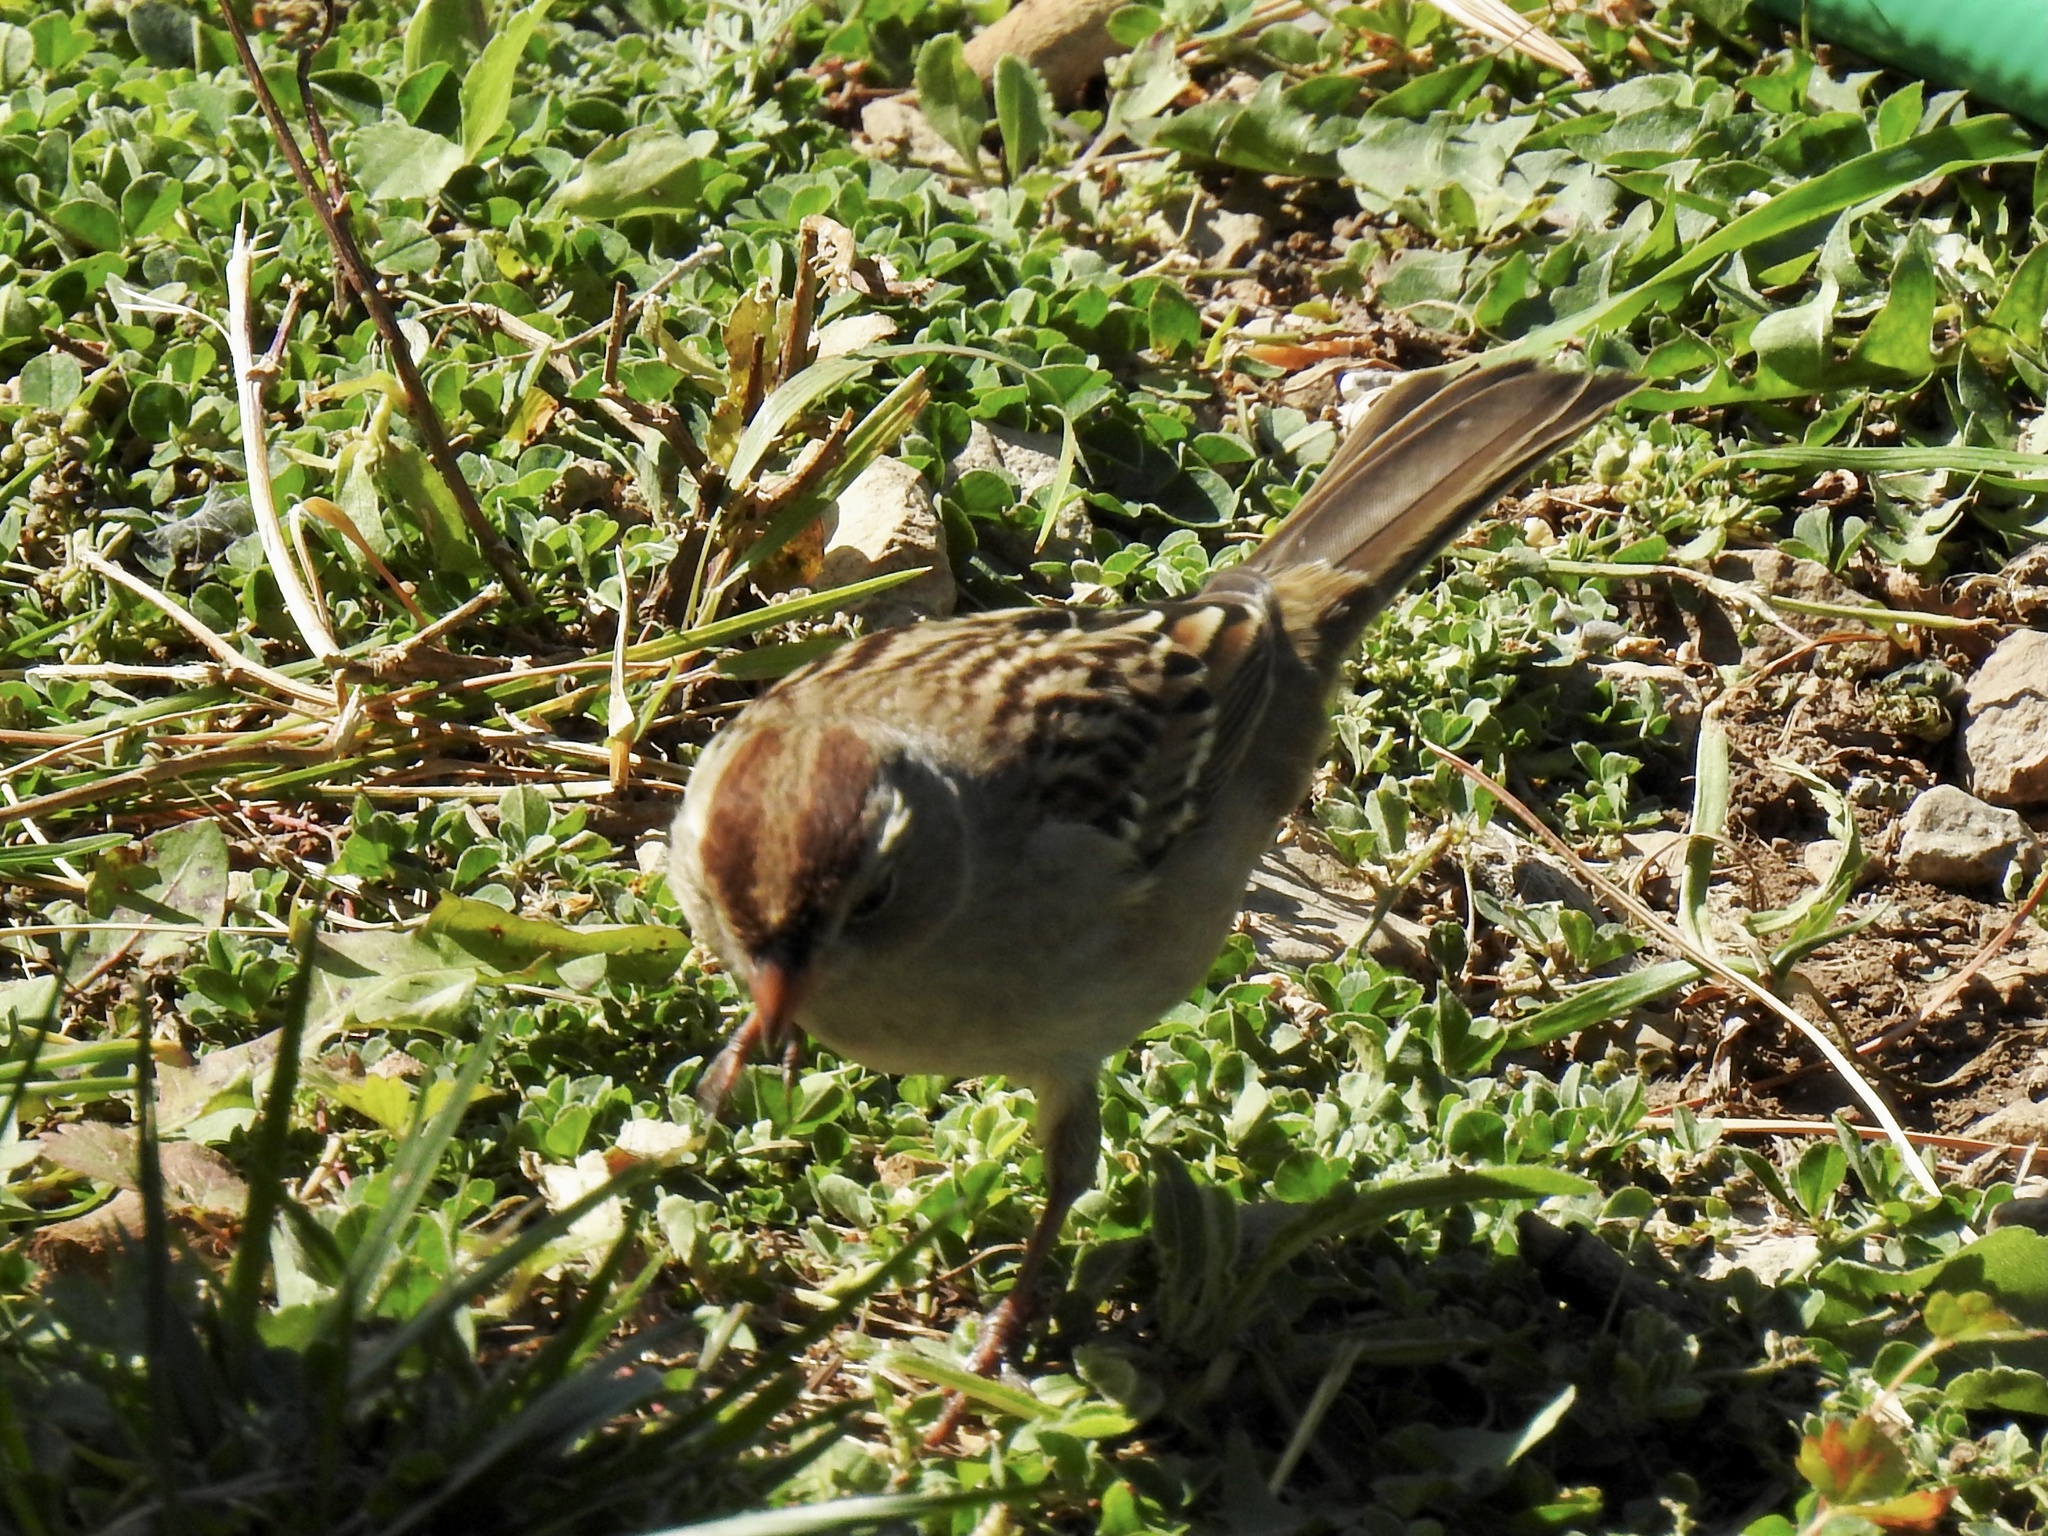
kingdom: Animalia
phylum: Chordata
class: Aves
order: Passeriformes
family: Passerellidae
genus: Zonotrichia
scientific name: Zonotrichia leucophrys
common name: White-crowned sparrow
